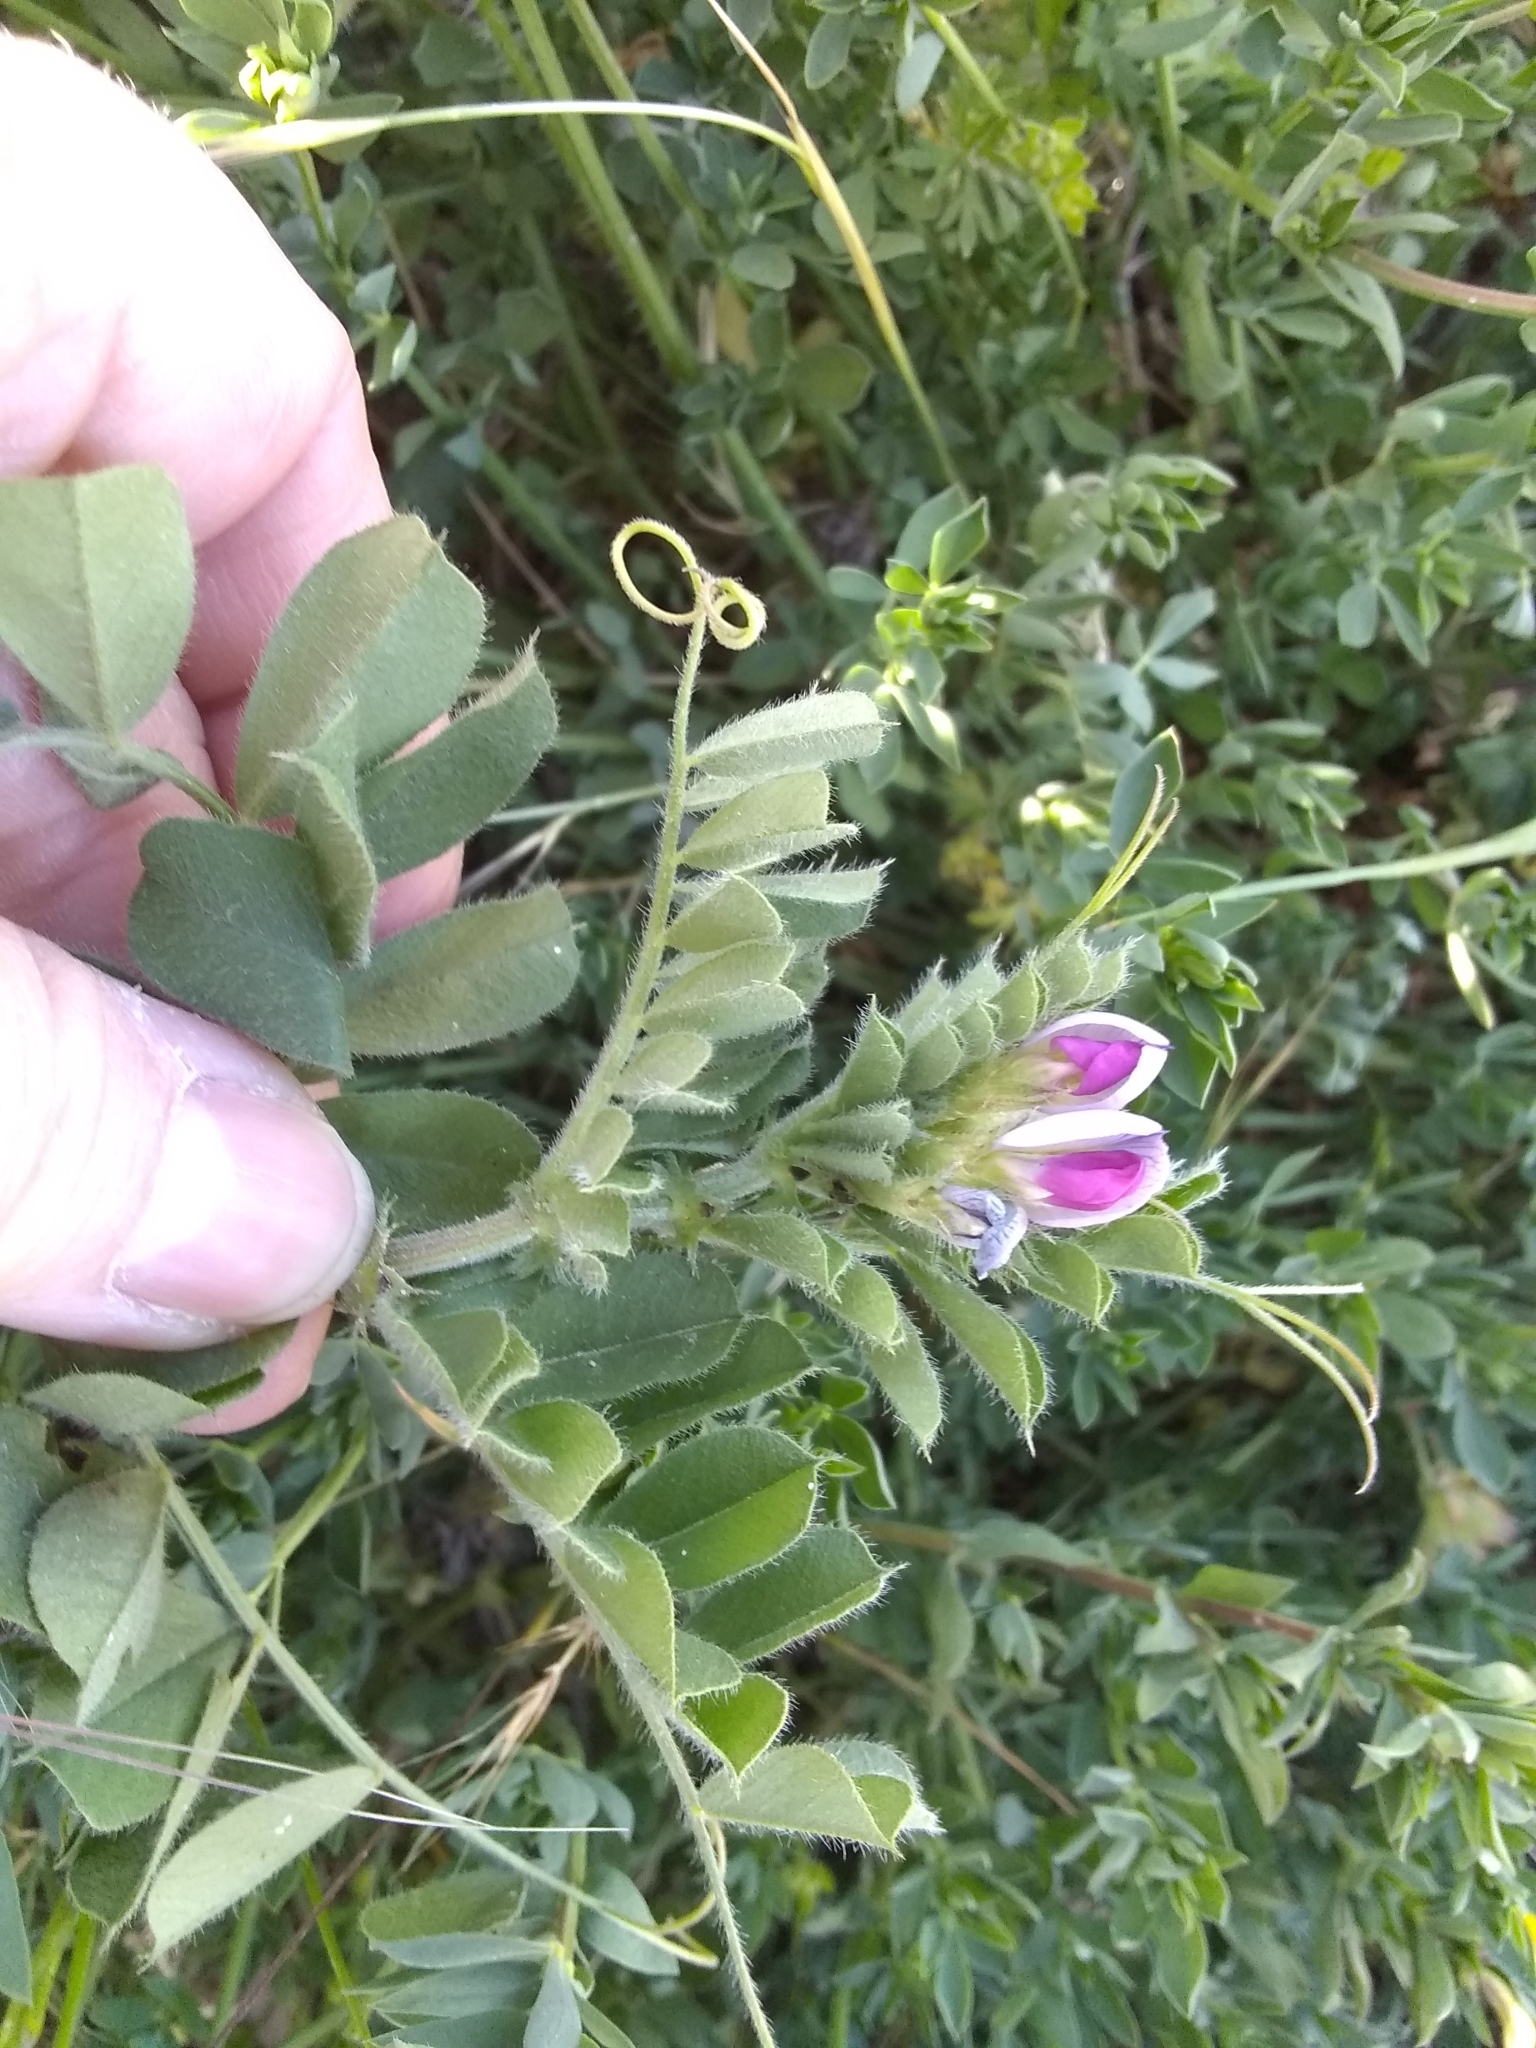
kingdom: Plantae
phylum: Tracheophyta
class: Magnoliopsida
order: Fabales
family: Fabaceae
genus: Vicia
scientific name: Vicia sativa
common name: Garden vetch
